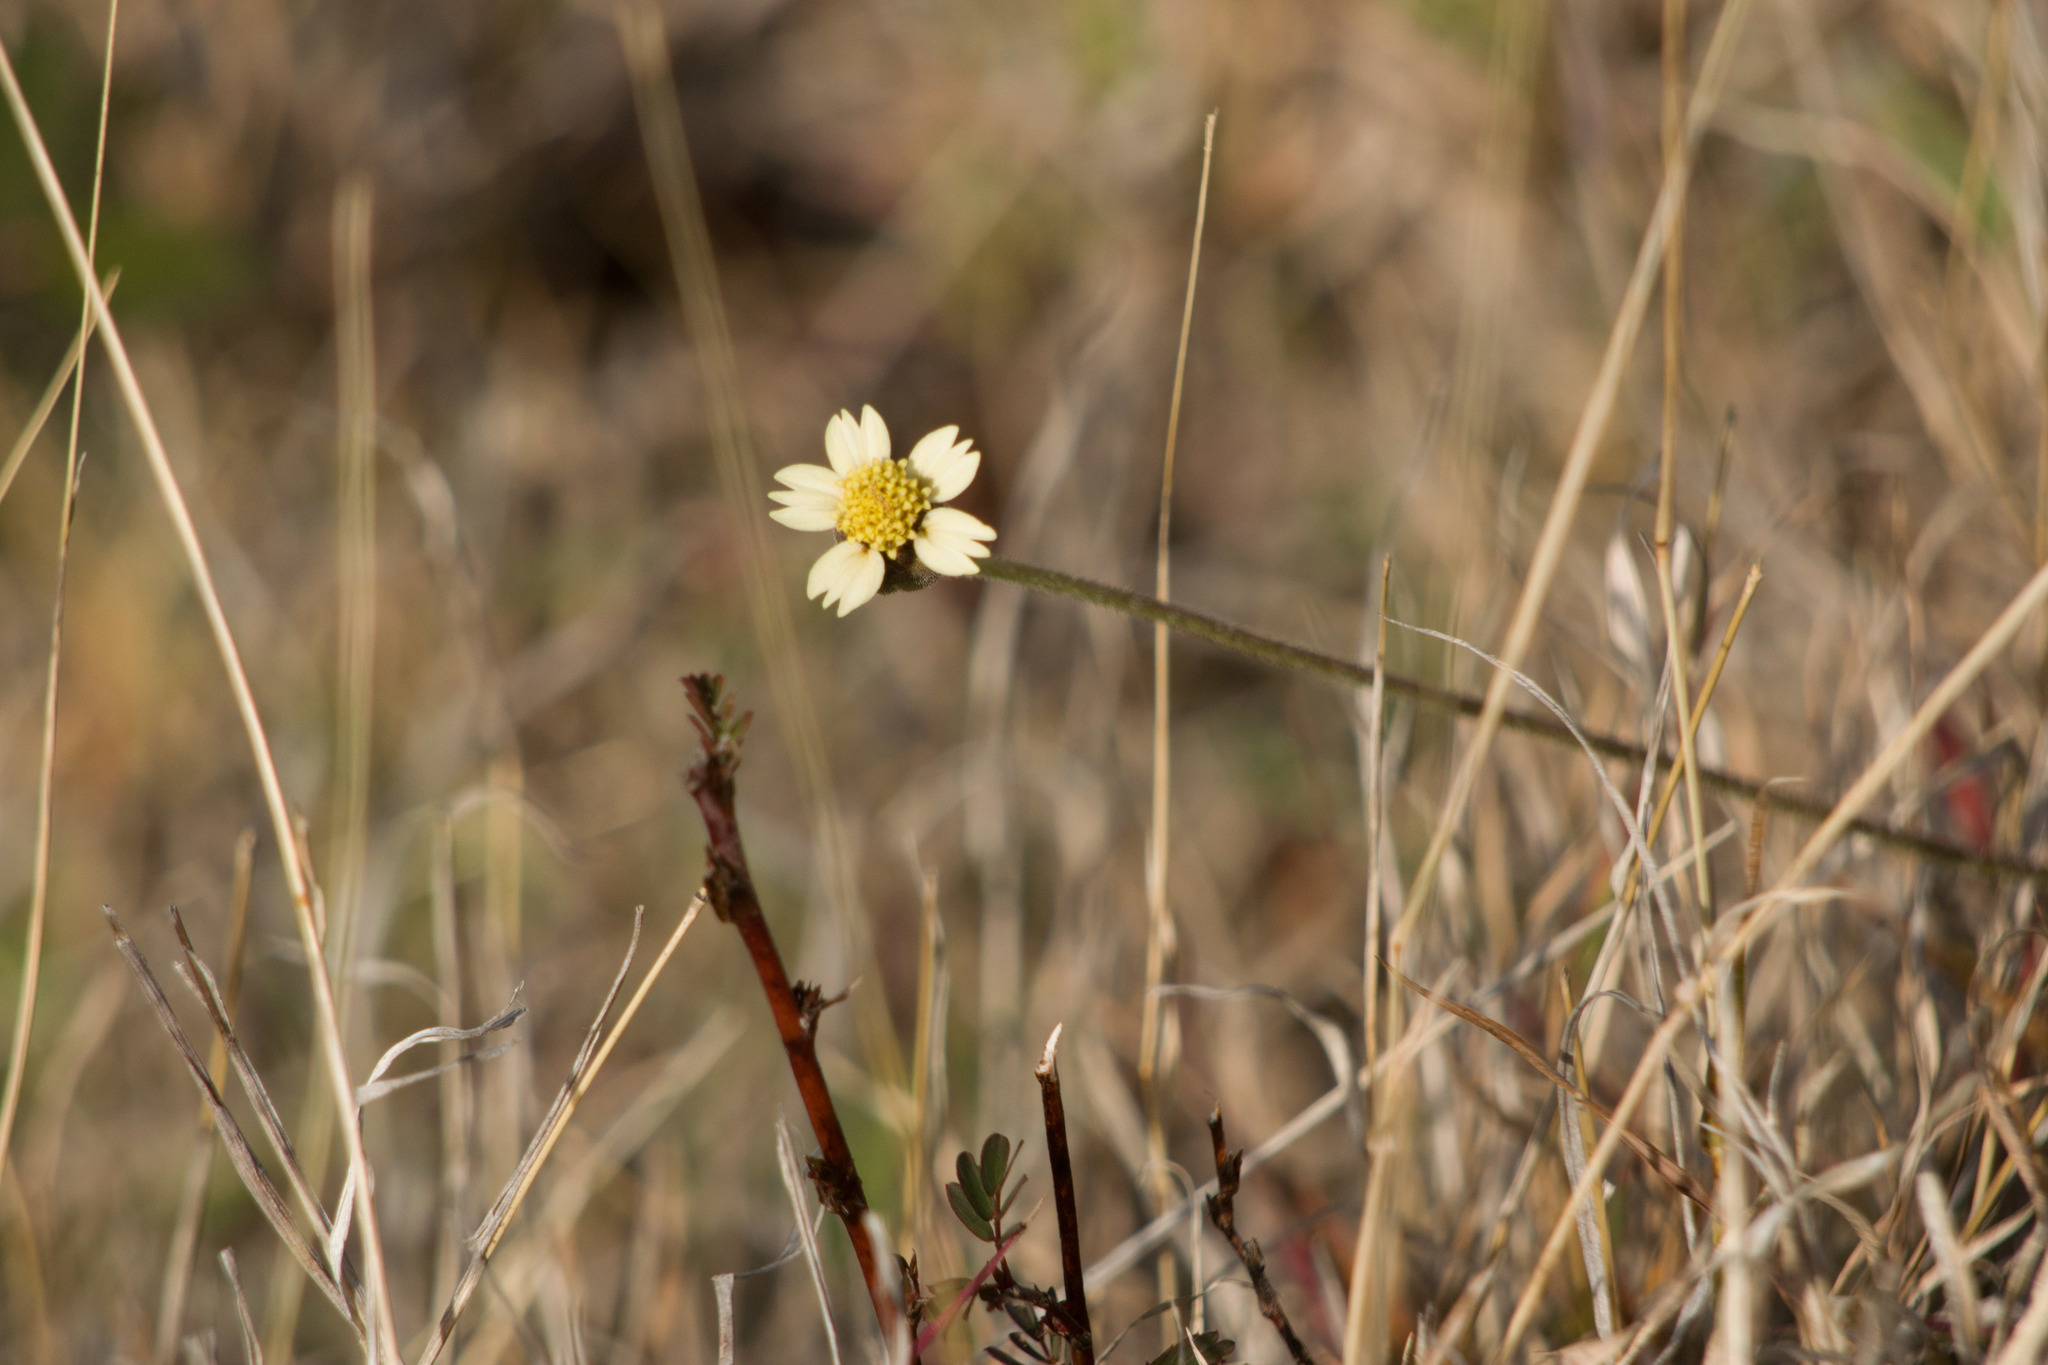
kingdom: Plantae
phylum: Tracheophyta
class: Magnoliopsida
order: Asterales
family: Asteraceae
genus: Tridax
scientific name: Tridax procumbens
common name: Coatbuttons
